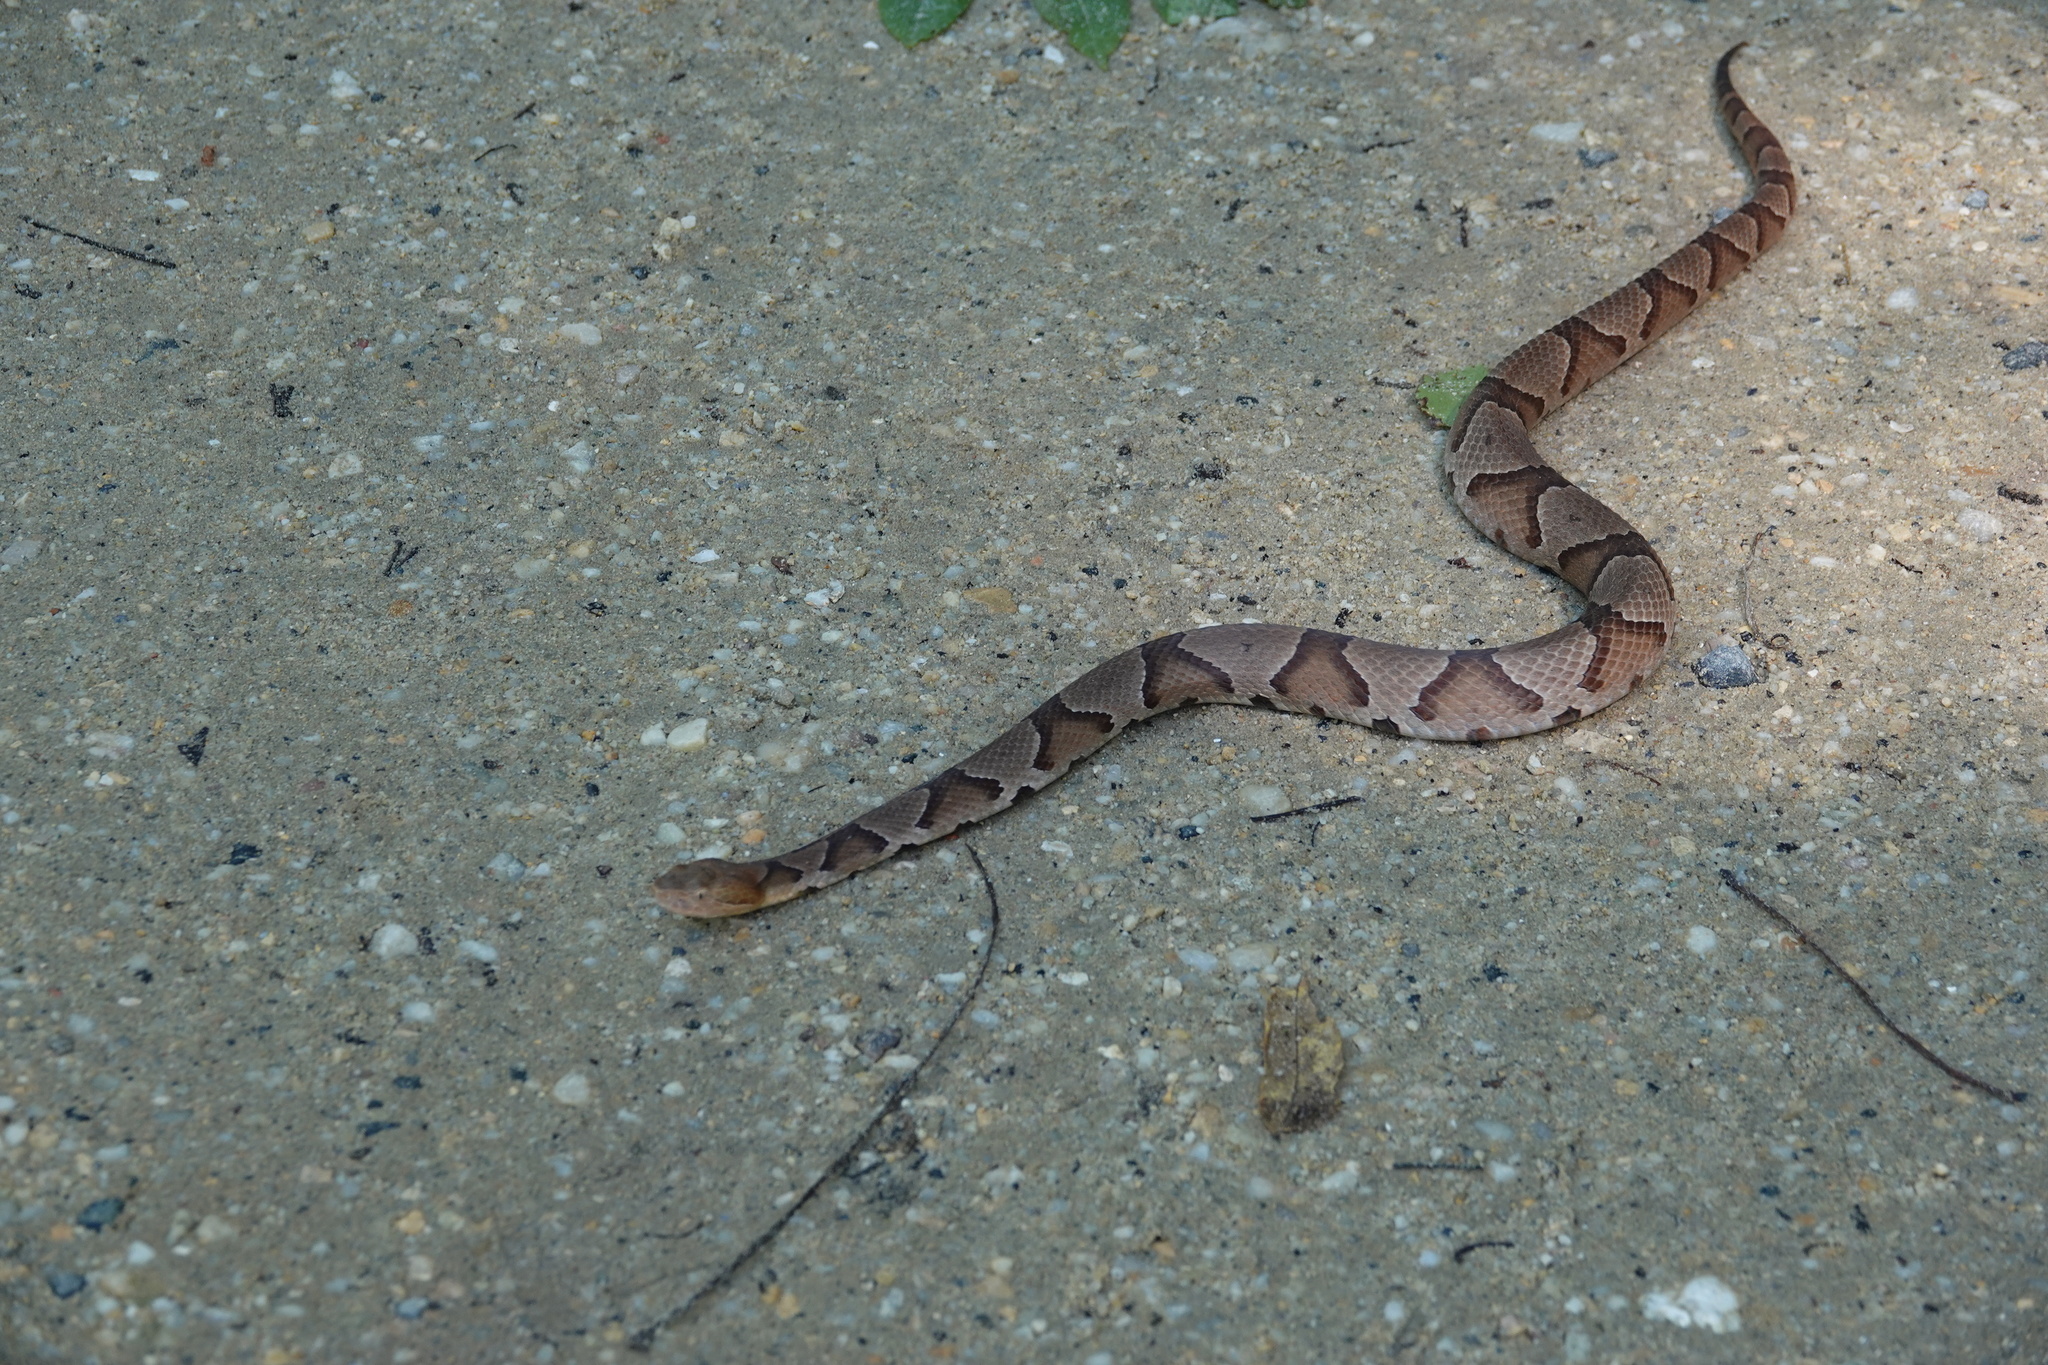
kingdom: Animalia
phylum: Chordata
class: Squamata
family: Viperidae
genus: Agkistrodon
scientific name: Agkistrodon contortrix
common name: Northern copperhead
